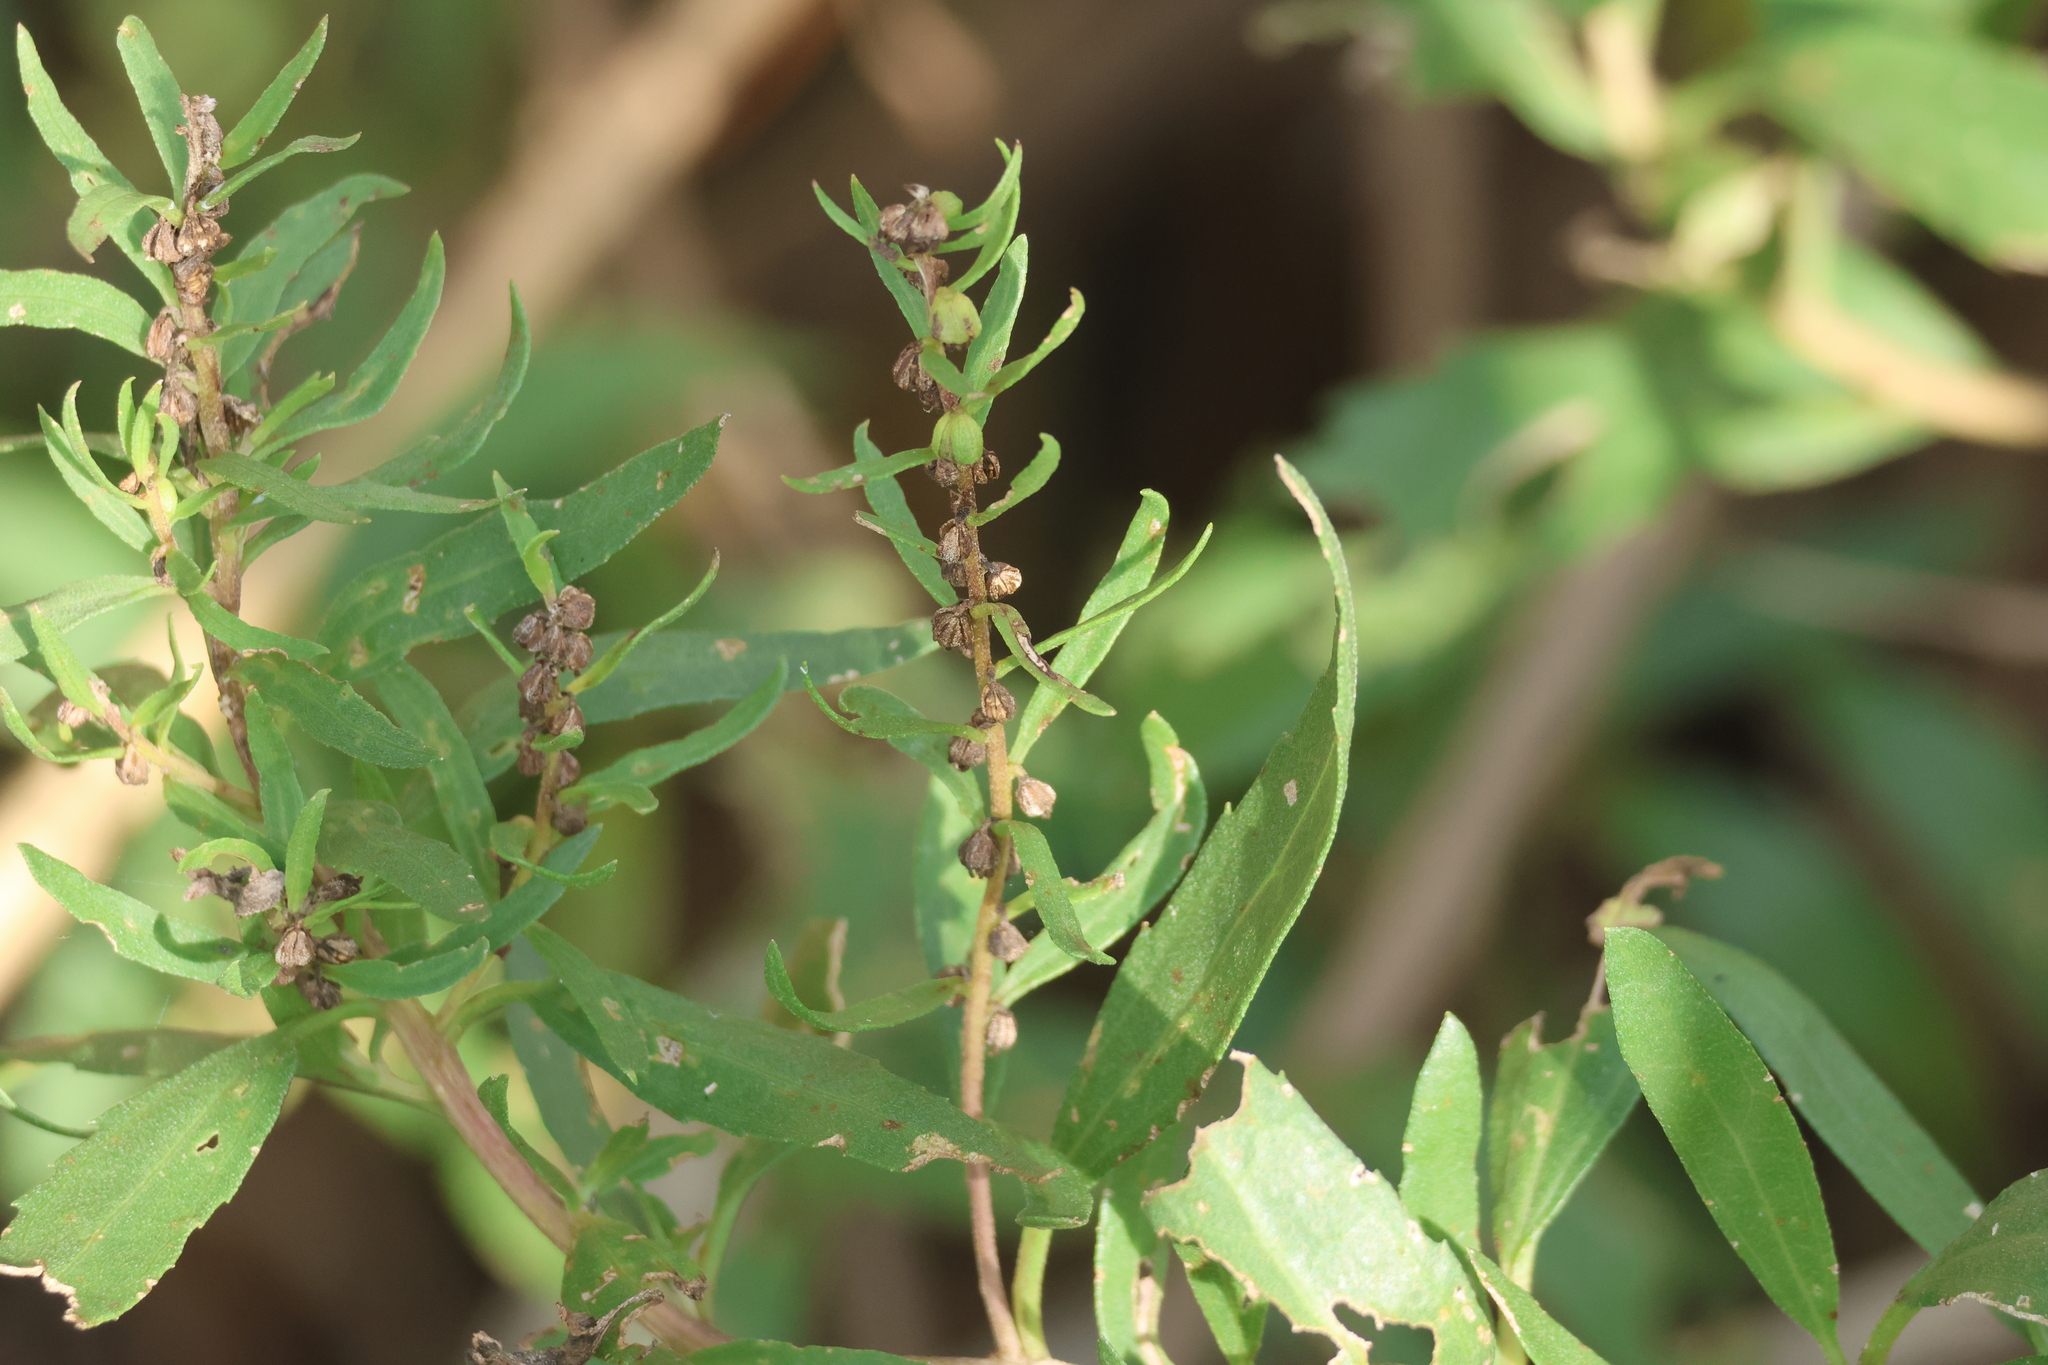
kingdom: Plantae
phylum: Tracheophyta
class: Magnoliopsida
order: Asterales
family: Asteraceae
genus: Iva
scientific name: Iva frutescens
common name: Big-leaved marsh-elder
